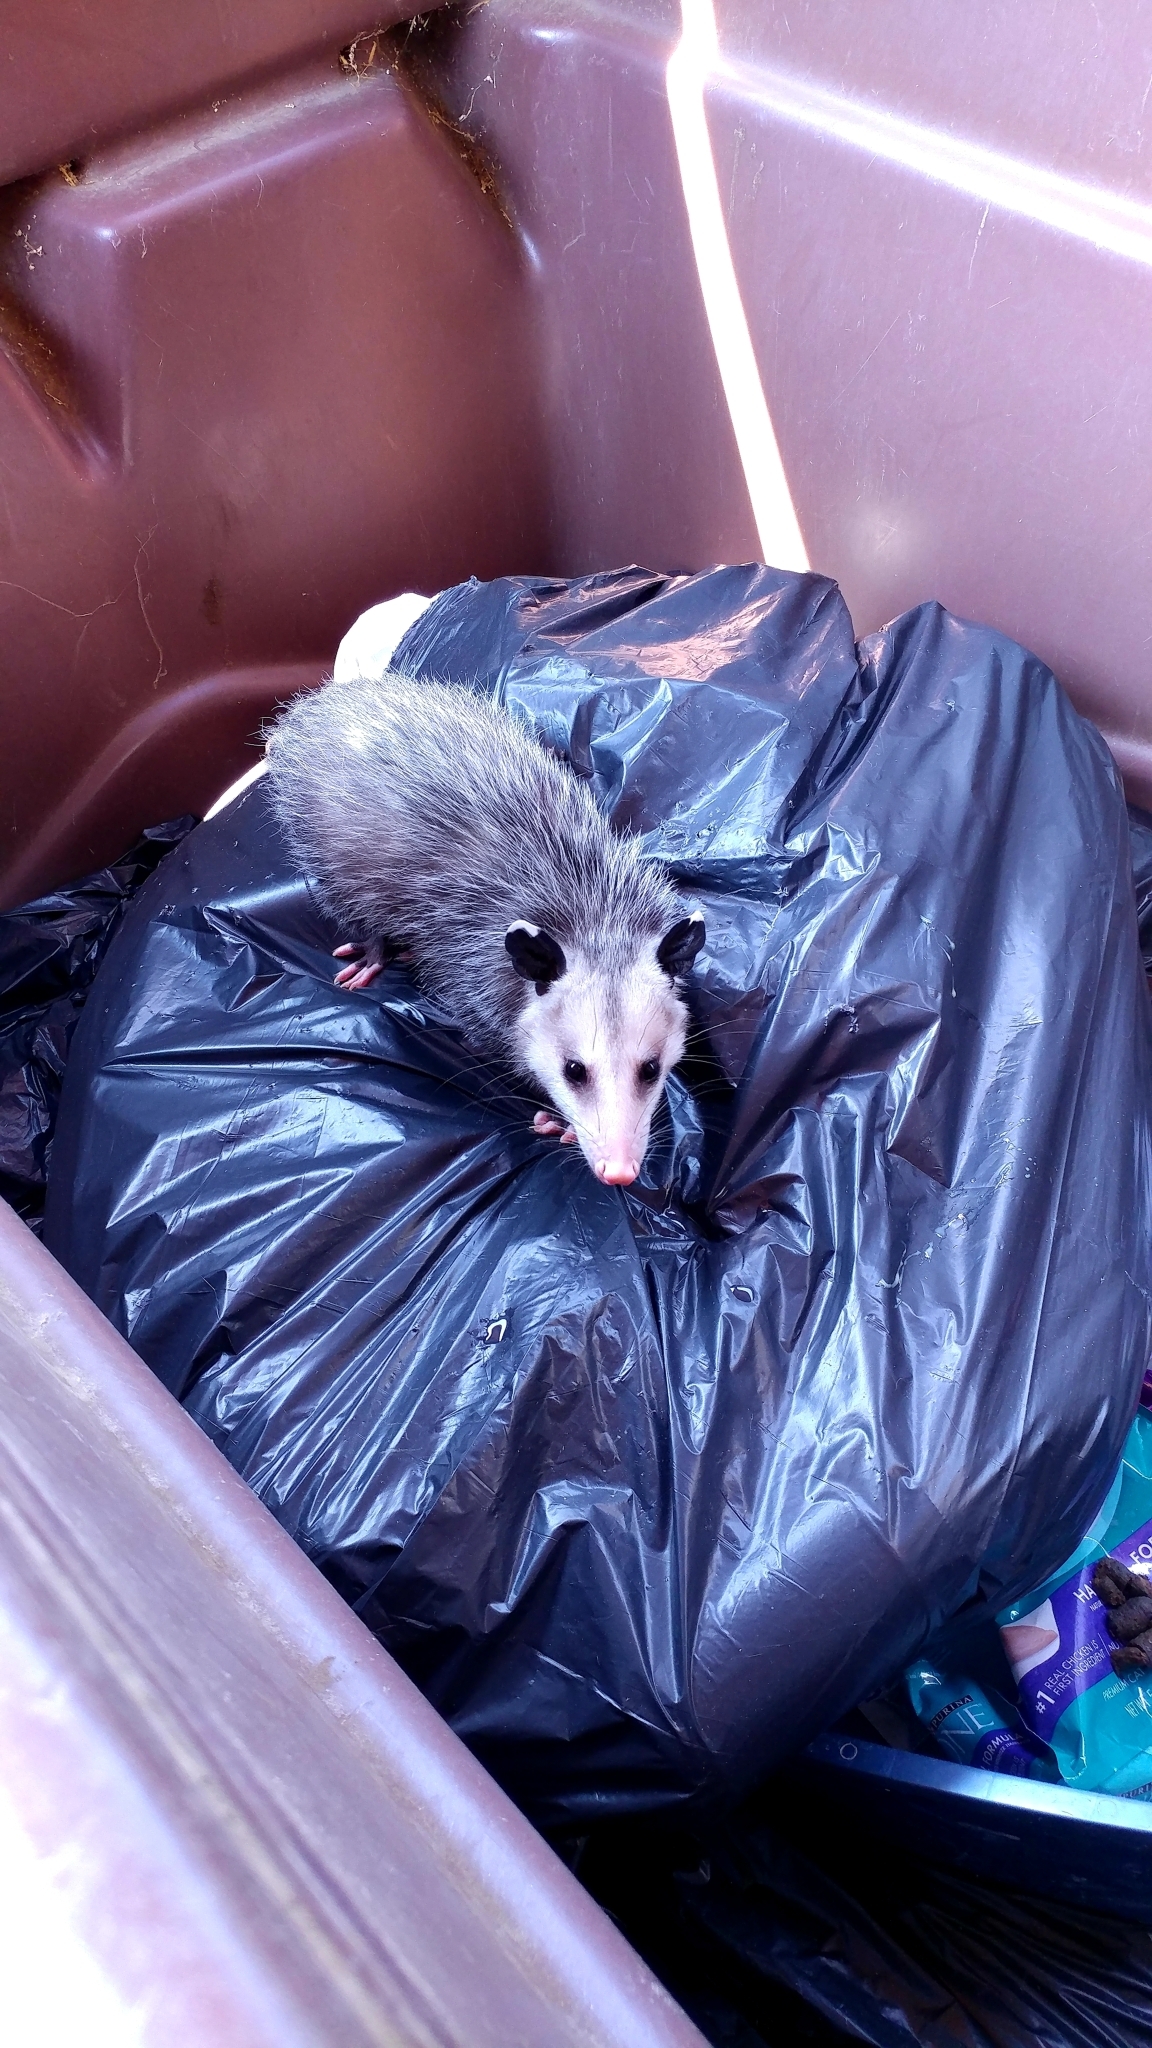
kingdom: Animalia
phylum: Chordata
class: Mammalia
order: Didelphimorphia
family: Didelphidae
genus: Didelphis
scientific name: Didelphis virginiana
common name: Virginia opossum
